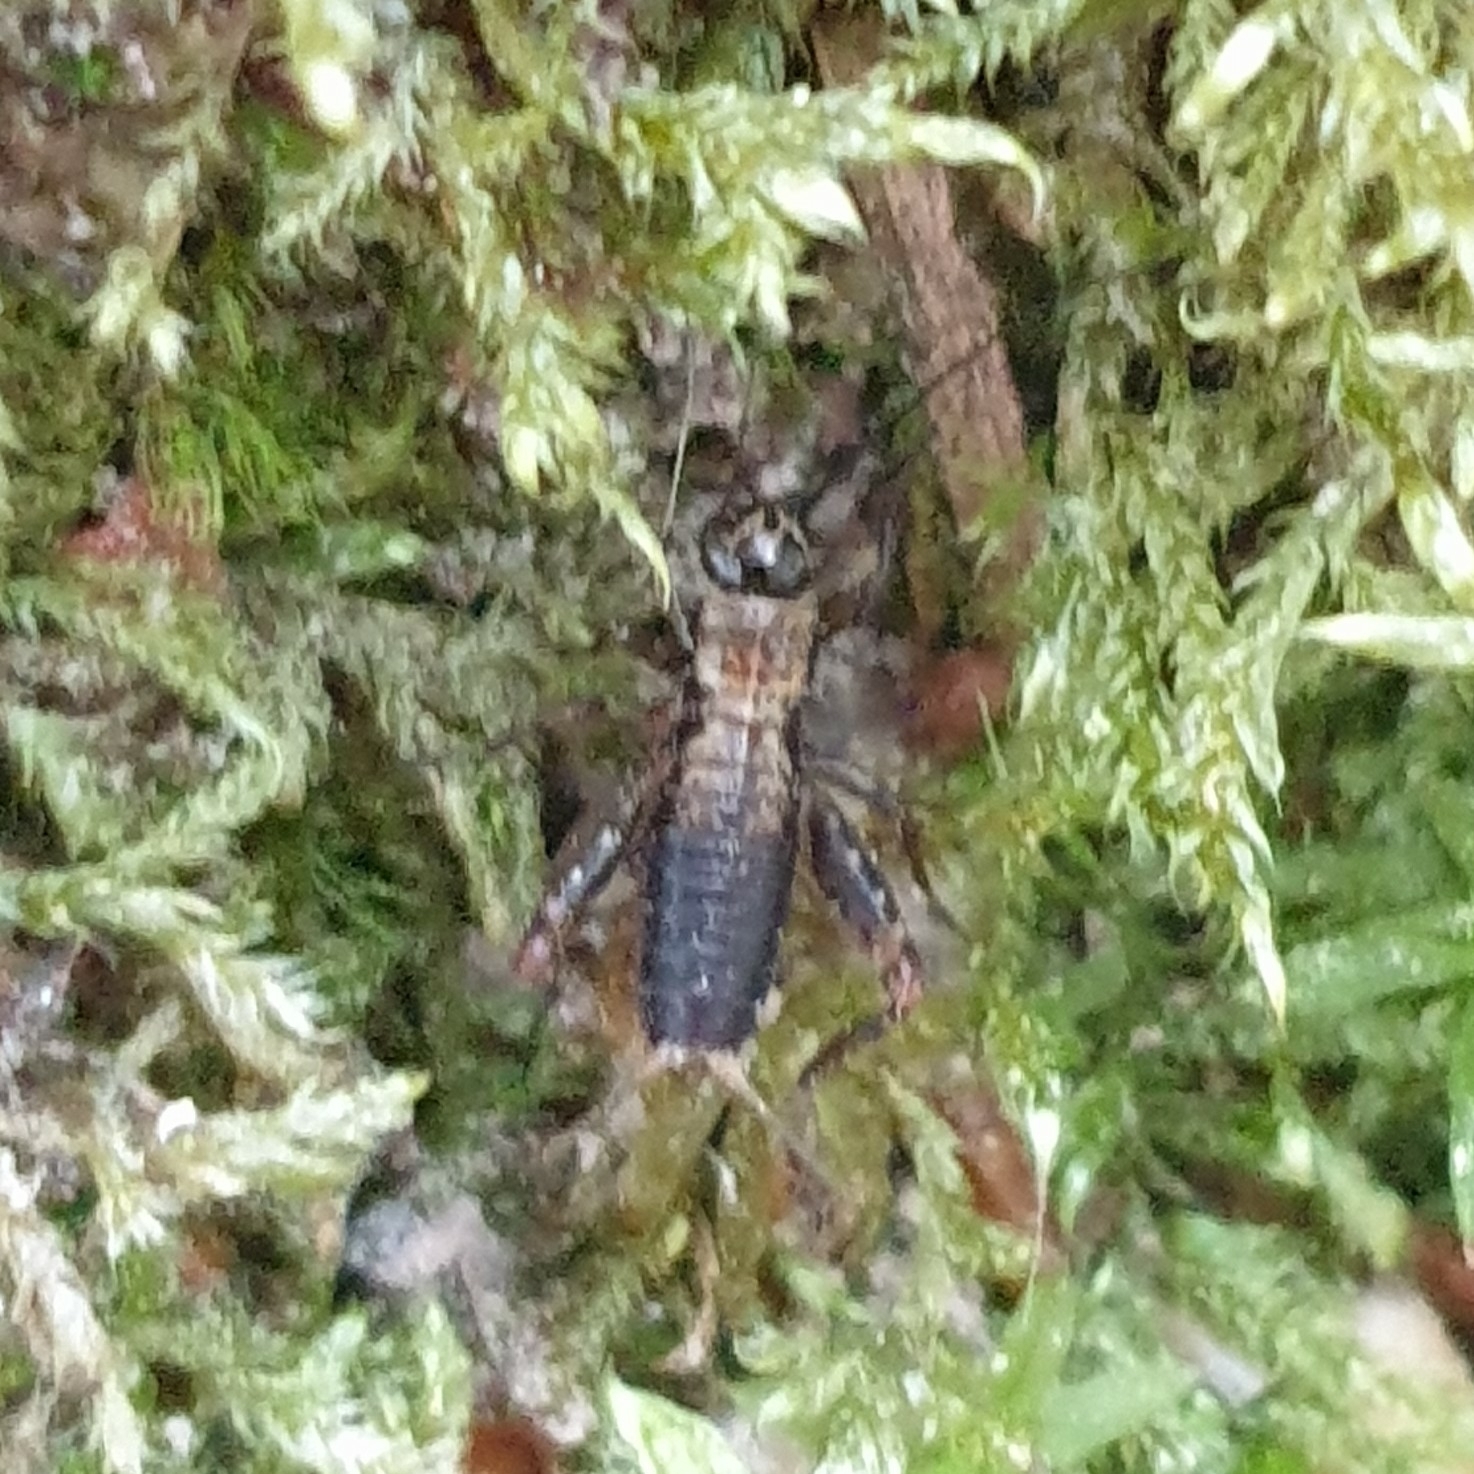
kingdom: Animalia
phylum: Arthropoda
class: Insecta
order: Orthoptera
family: Trigonidiidae
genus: Nemobius
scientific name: Nemobius sylvestris
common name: Wood-cricket
